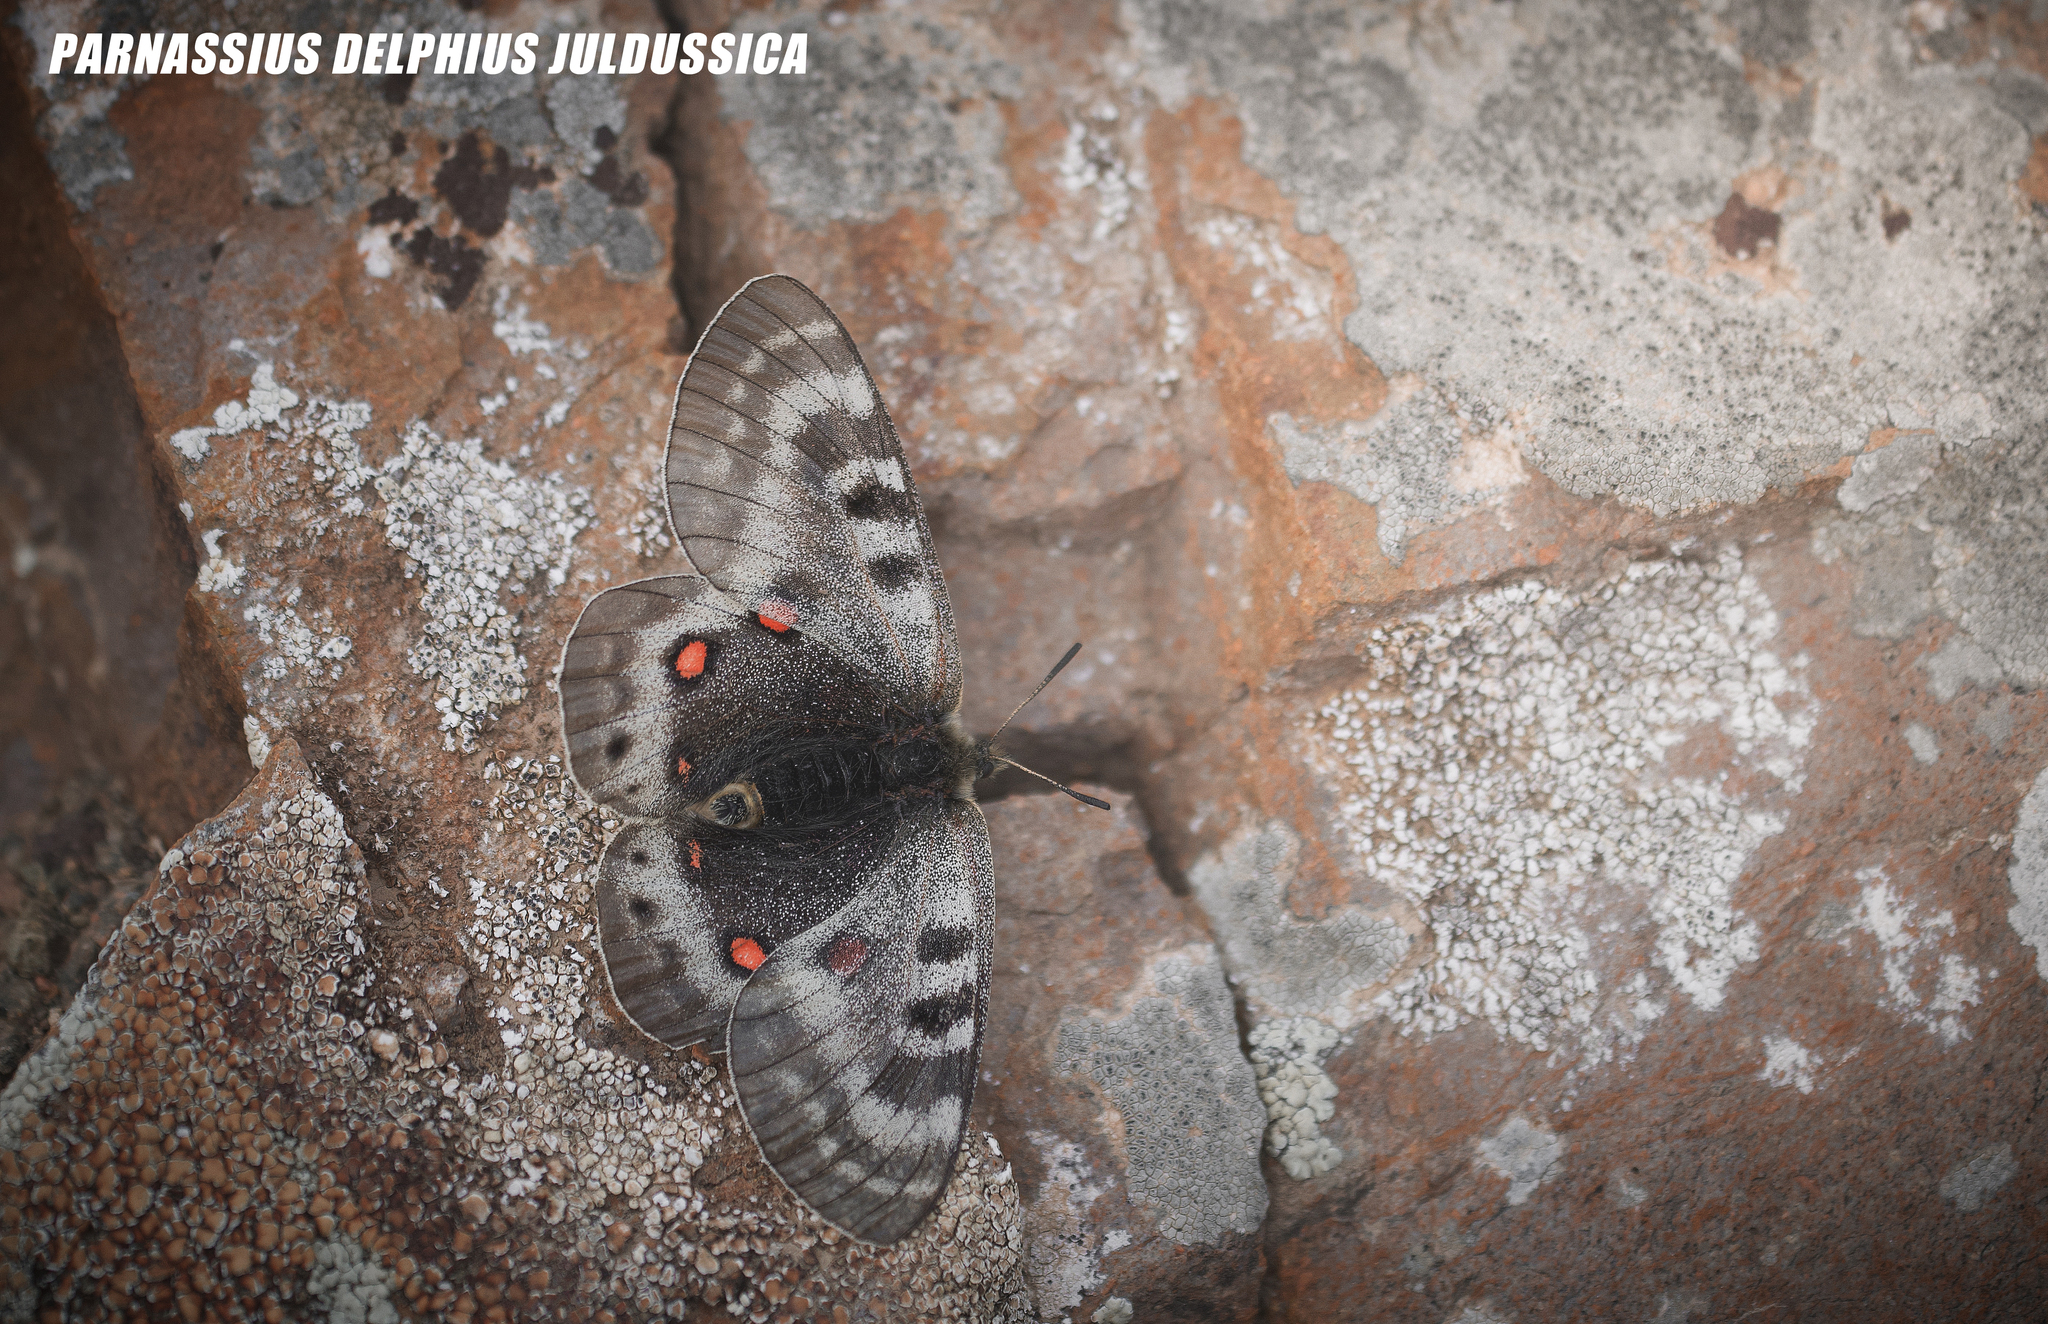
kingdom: Animalia
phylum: Arthropoda
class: Insecta
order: Lepidoptera
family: Papilionidae
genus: Parnassius
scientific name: Parnassius delphius
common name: Banded apollo
